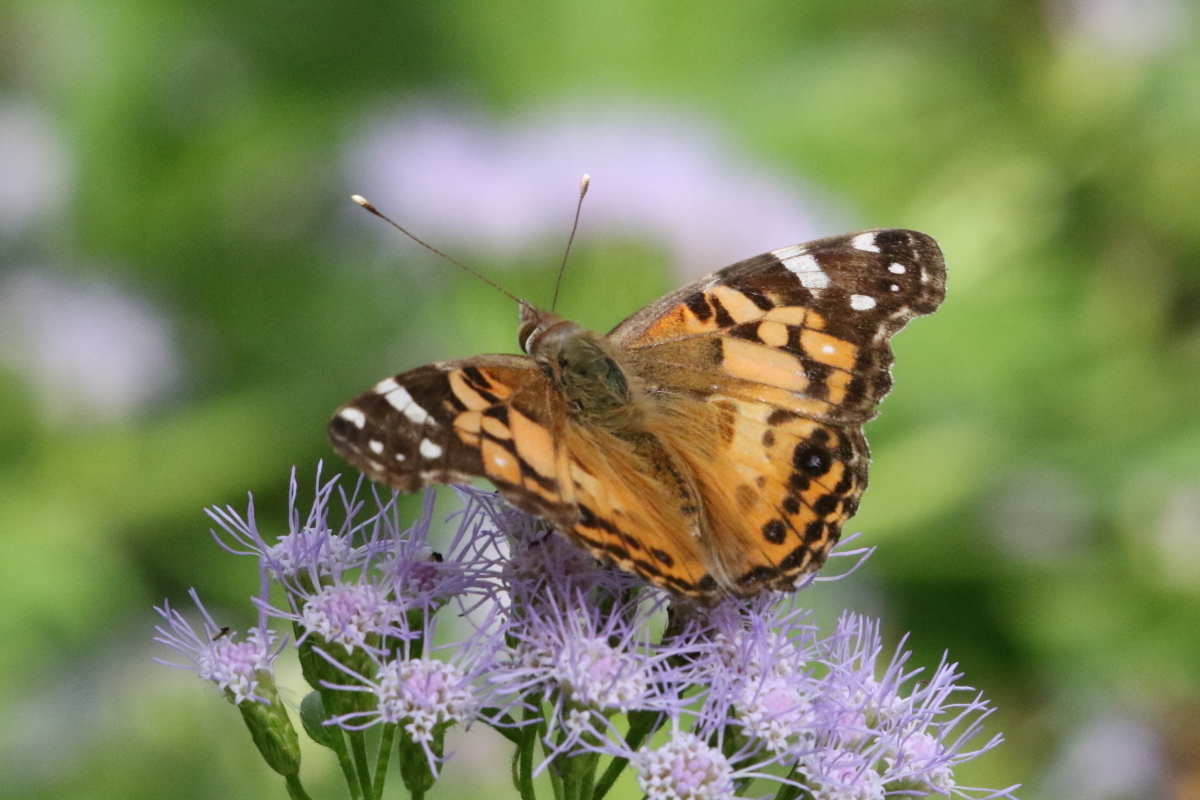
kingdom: Animalia
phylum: Arthropoda
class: Insecta
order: Lepidoptera
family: Nymphalidae
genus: Vanessa
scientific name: Vanessa virginiensis
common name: American lady
